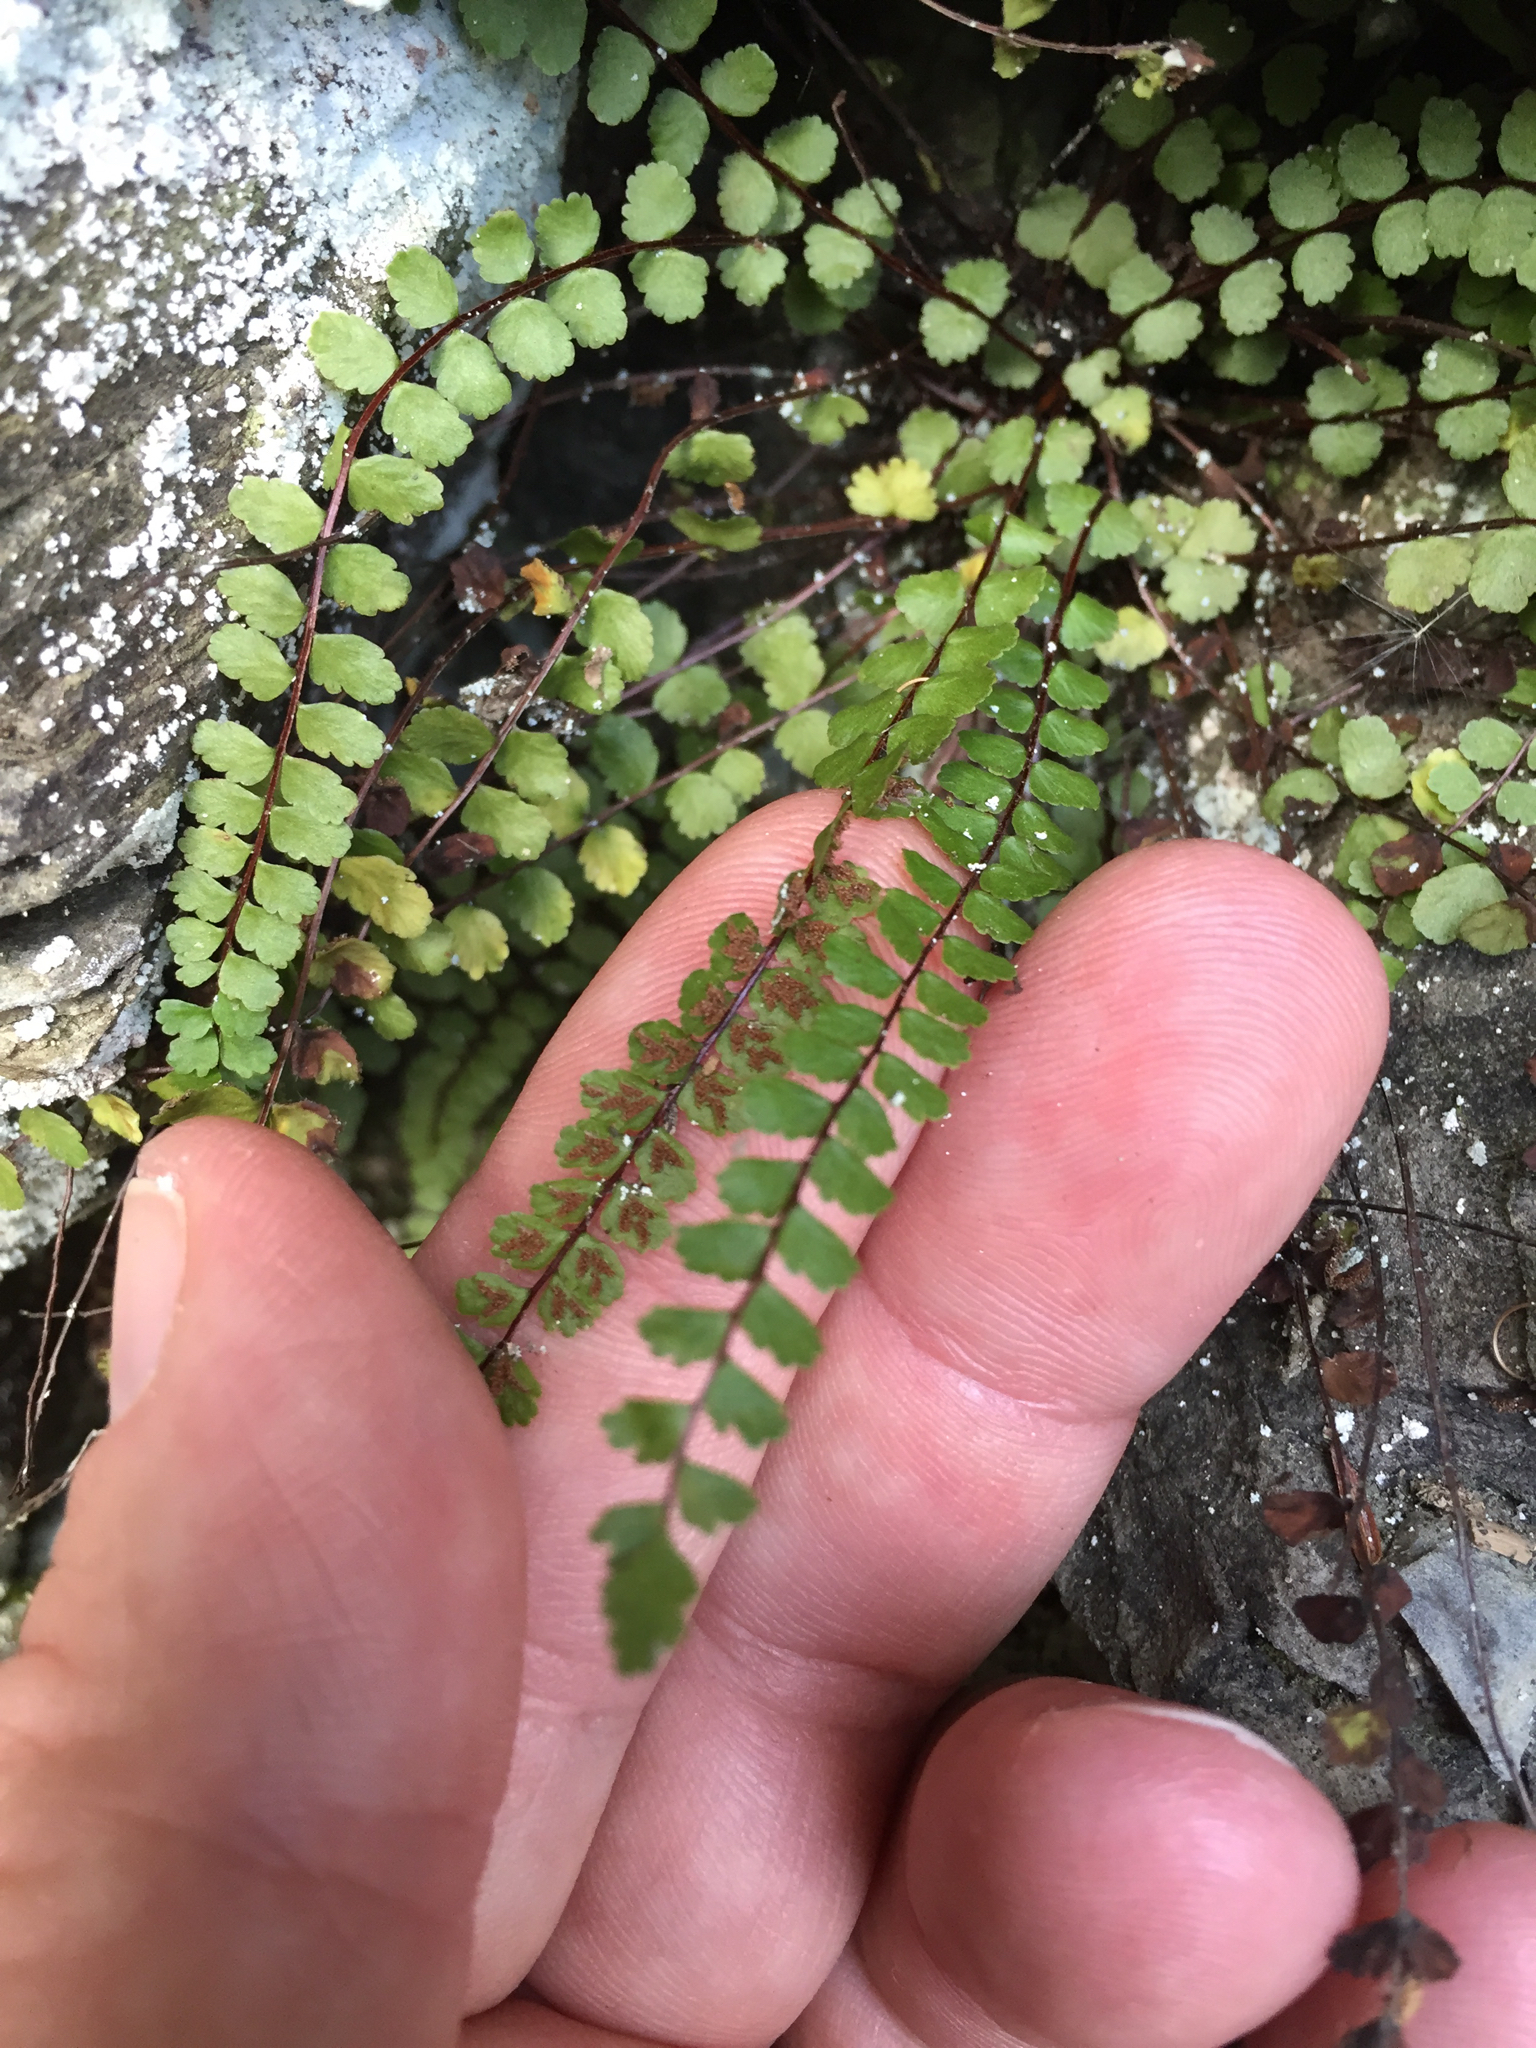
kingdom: Plantae
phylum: Tracheophyta
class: Polypodiopsida
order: Polypodiales
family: Aspleniaceae
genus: Asplenium
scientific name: Asplenium trichomanes
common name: Maidenhair spleenwort
